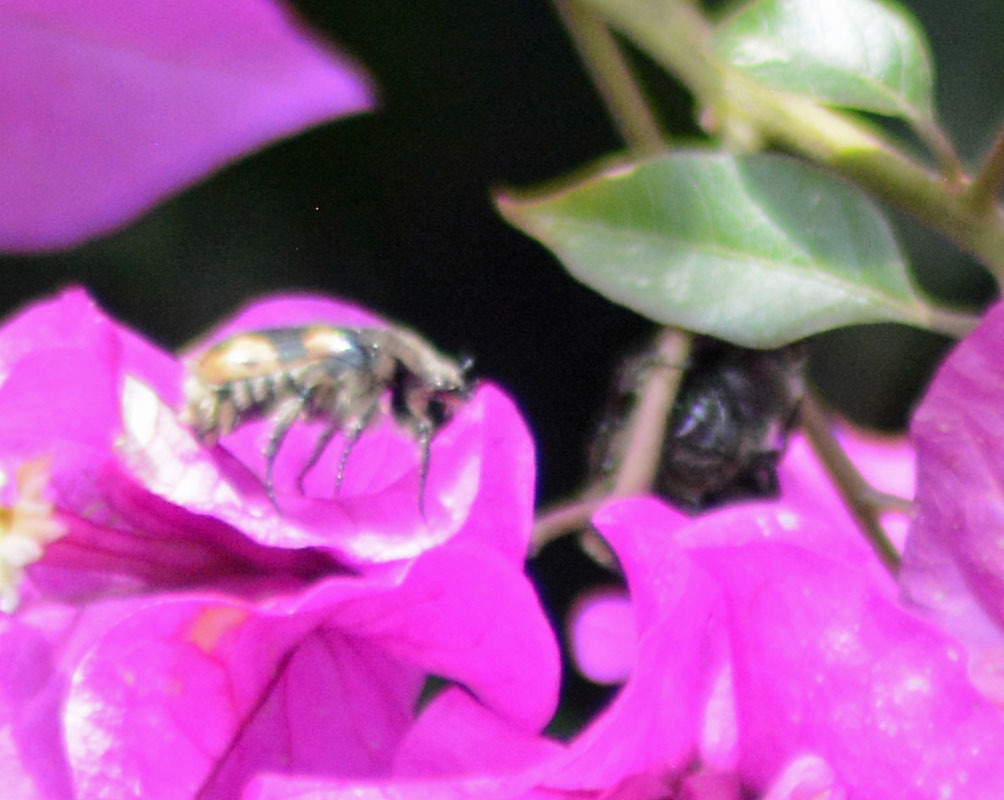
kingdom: Animalia
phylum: Arthropoda
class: Insecta
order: Coleoptera
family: Scarabaeidae
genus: Euphoria
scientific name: Euphoria basalis
